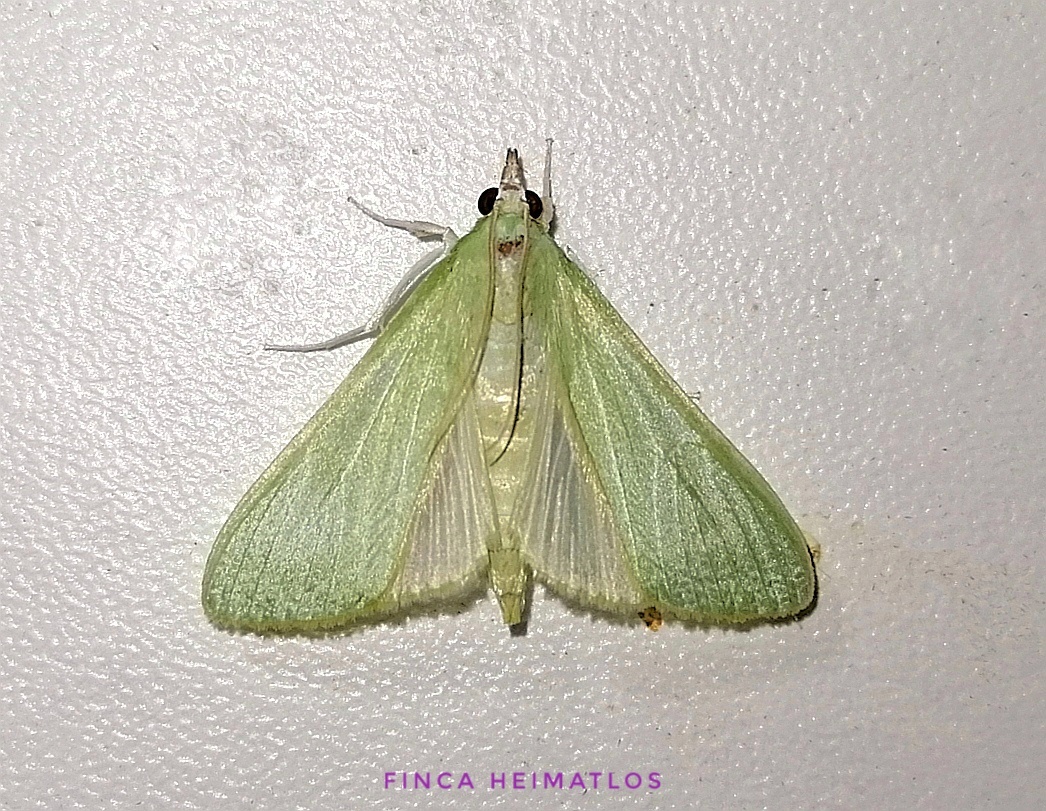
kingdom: Animalia
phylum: Arthropoda
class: Insecta
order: Lepidoptera
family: Crambidae
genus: Diaphania
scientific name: Diaphania esmeralda
